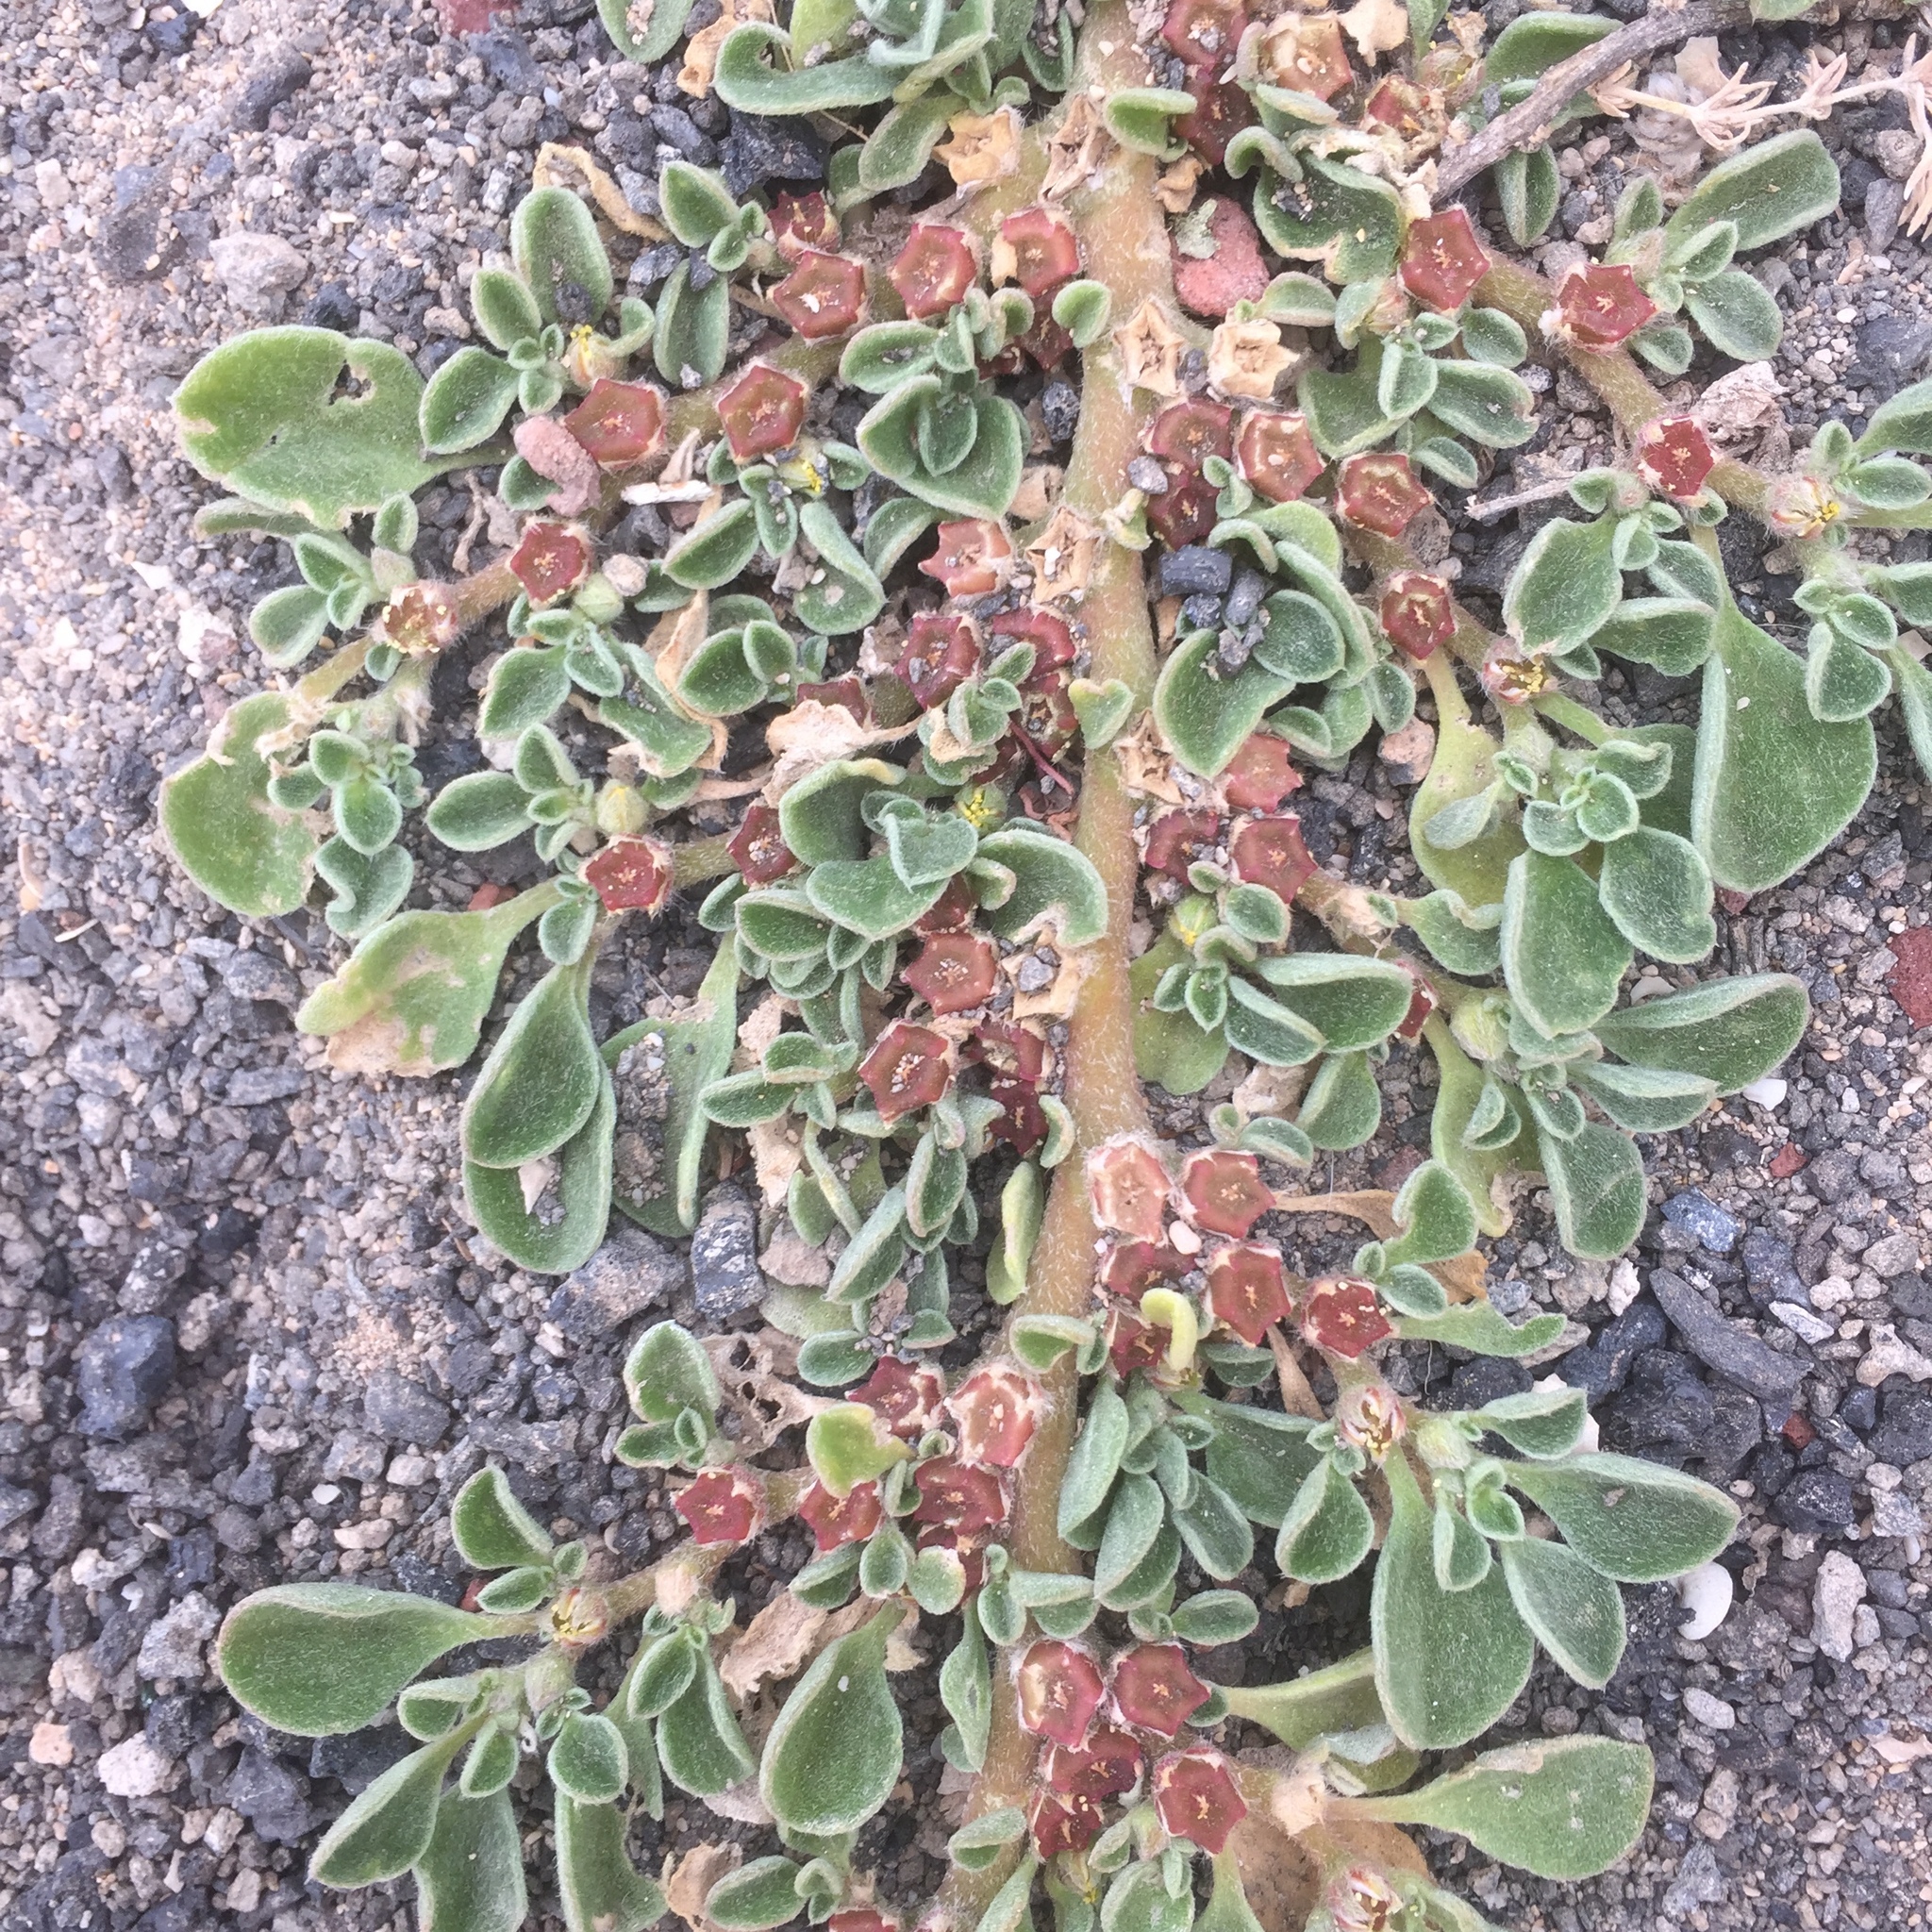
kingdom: Plantae
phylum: Tracheophyta
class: Magnoliopsida
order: Caryophyllales
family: Aizoaceae
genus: Aizoon
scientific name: Aizoon canariense
